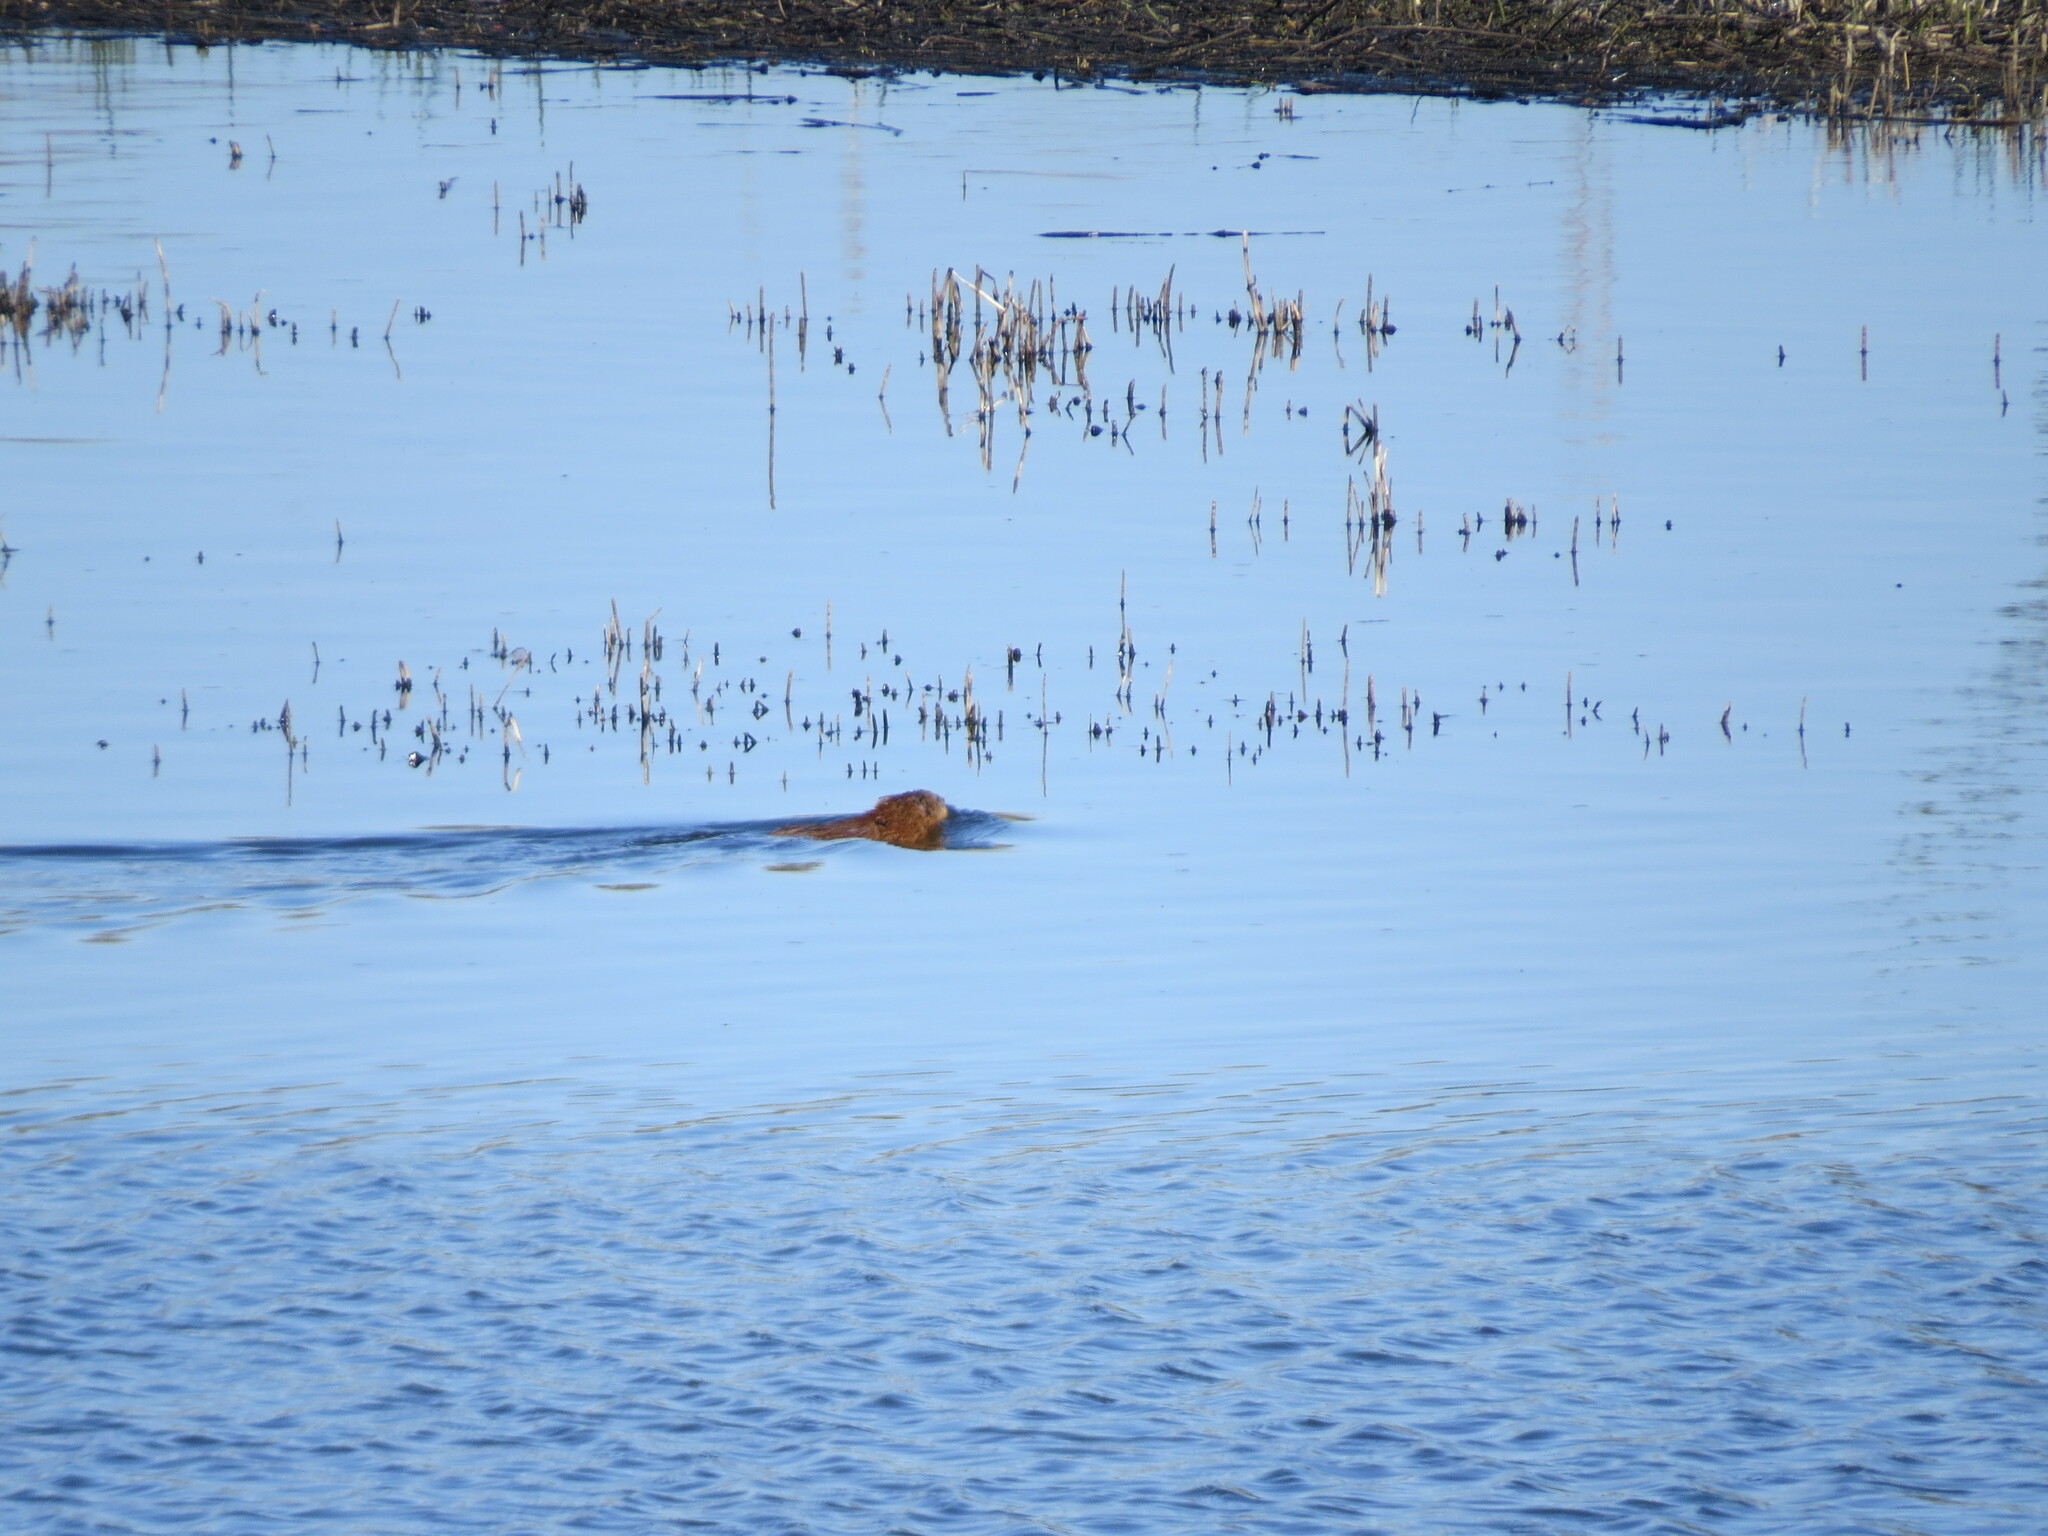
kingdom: Animalia
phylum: Chordata
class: Mammalia
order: Rodentia
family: Cricetidae
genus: Ondatra
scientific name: Ondatra zibethicus
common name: Muskrat
